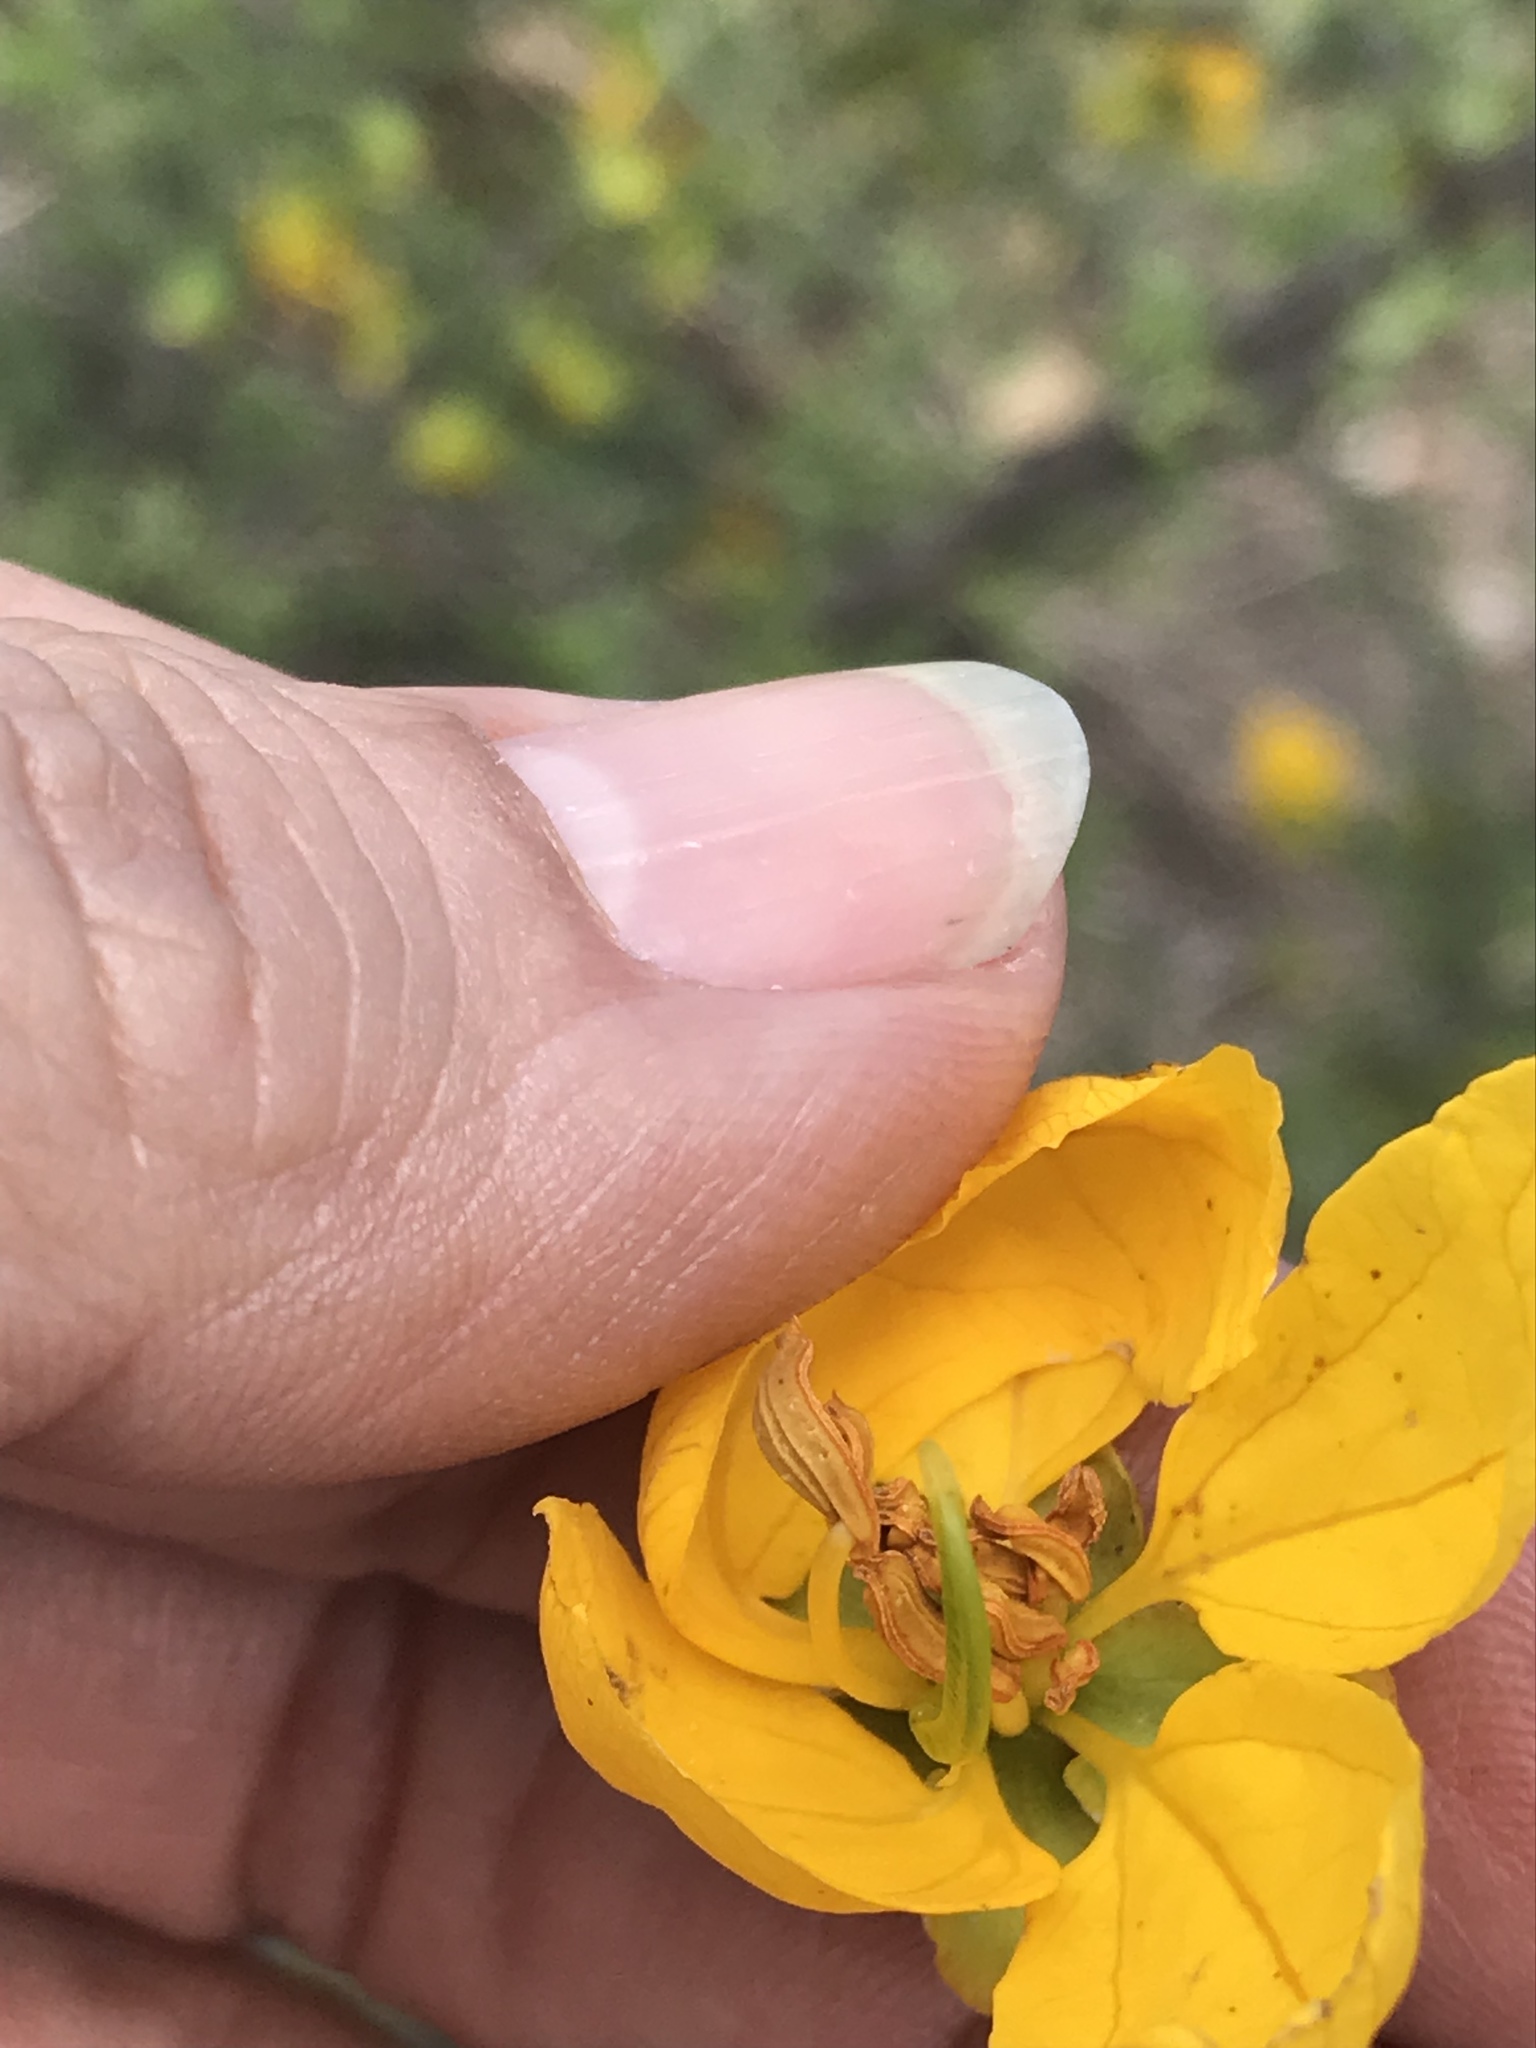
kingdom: Plantae
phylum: Tracheophyta
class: Magnoliopsida
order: Fabales
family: Fabaceae
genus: Senna
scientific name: Senna wislizeni
